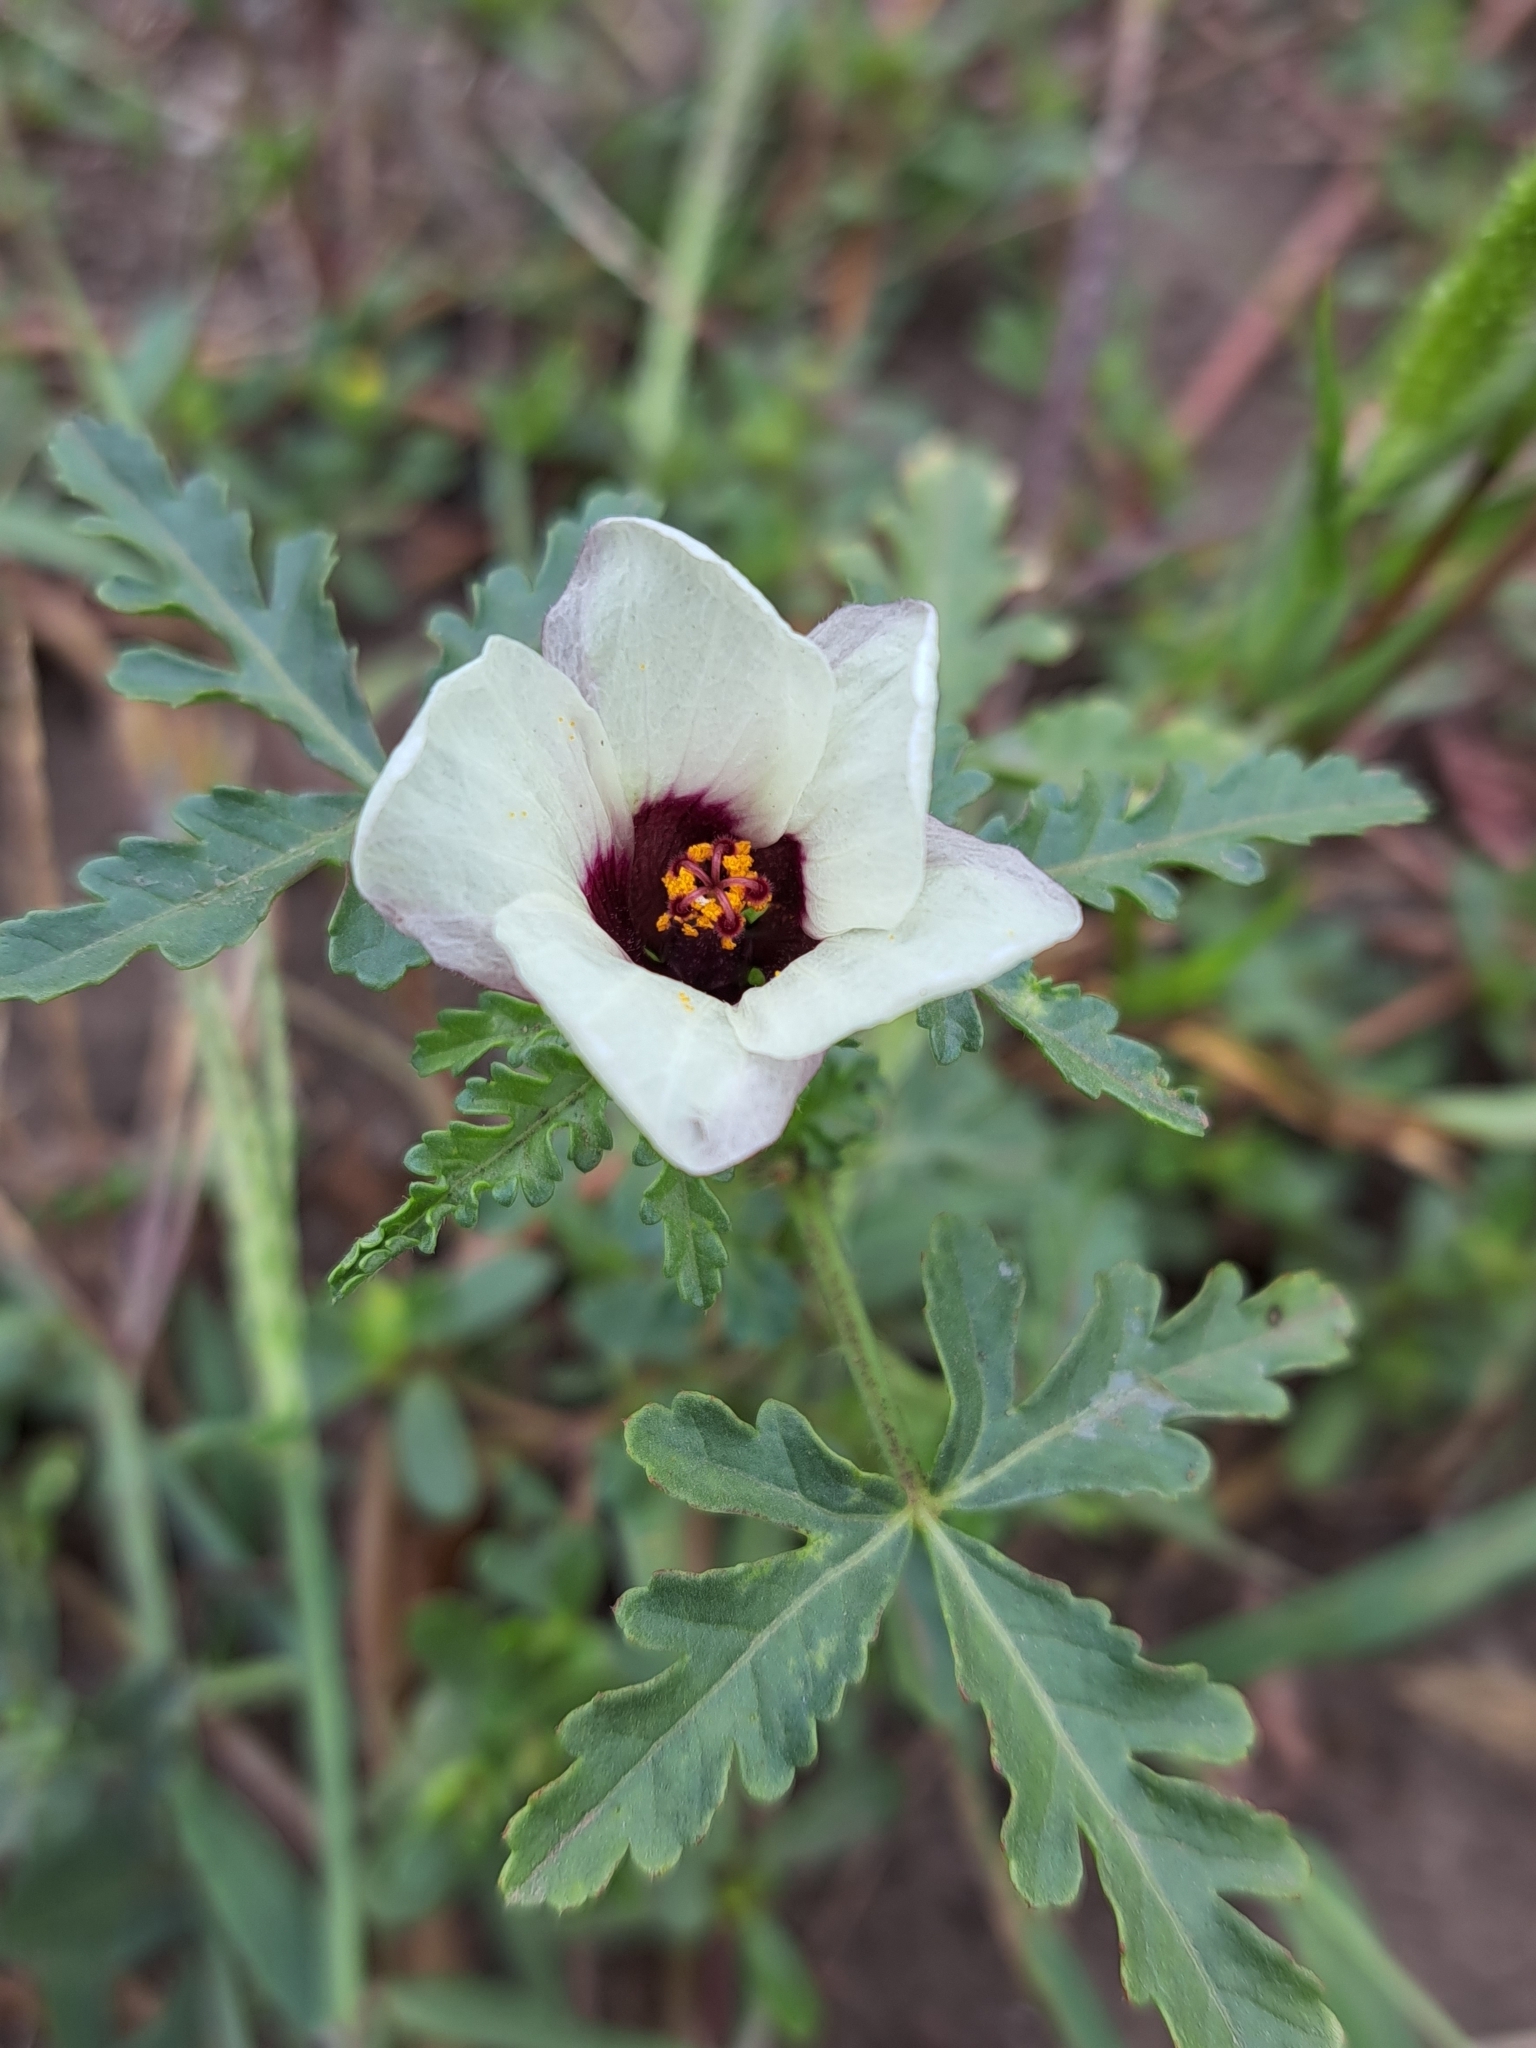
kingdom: Plantae
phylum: Tracheophyta
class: Magnoliopsida
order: Malvales
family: Malvaceae
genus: Hibiscus
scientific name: Hibiscus trionum
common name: Bladder ketmia
